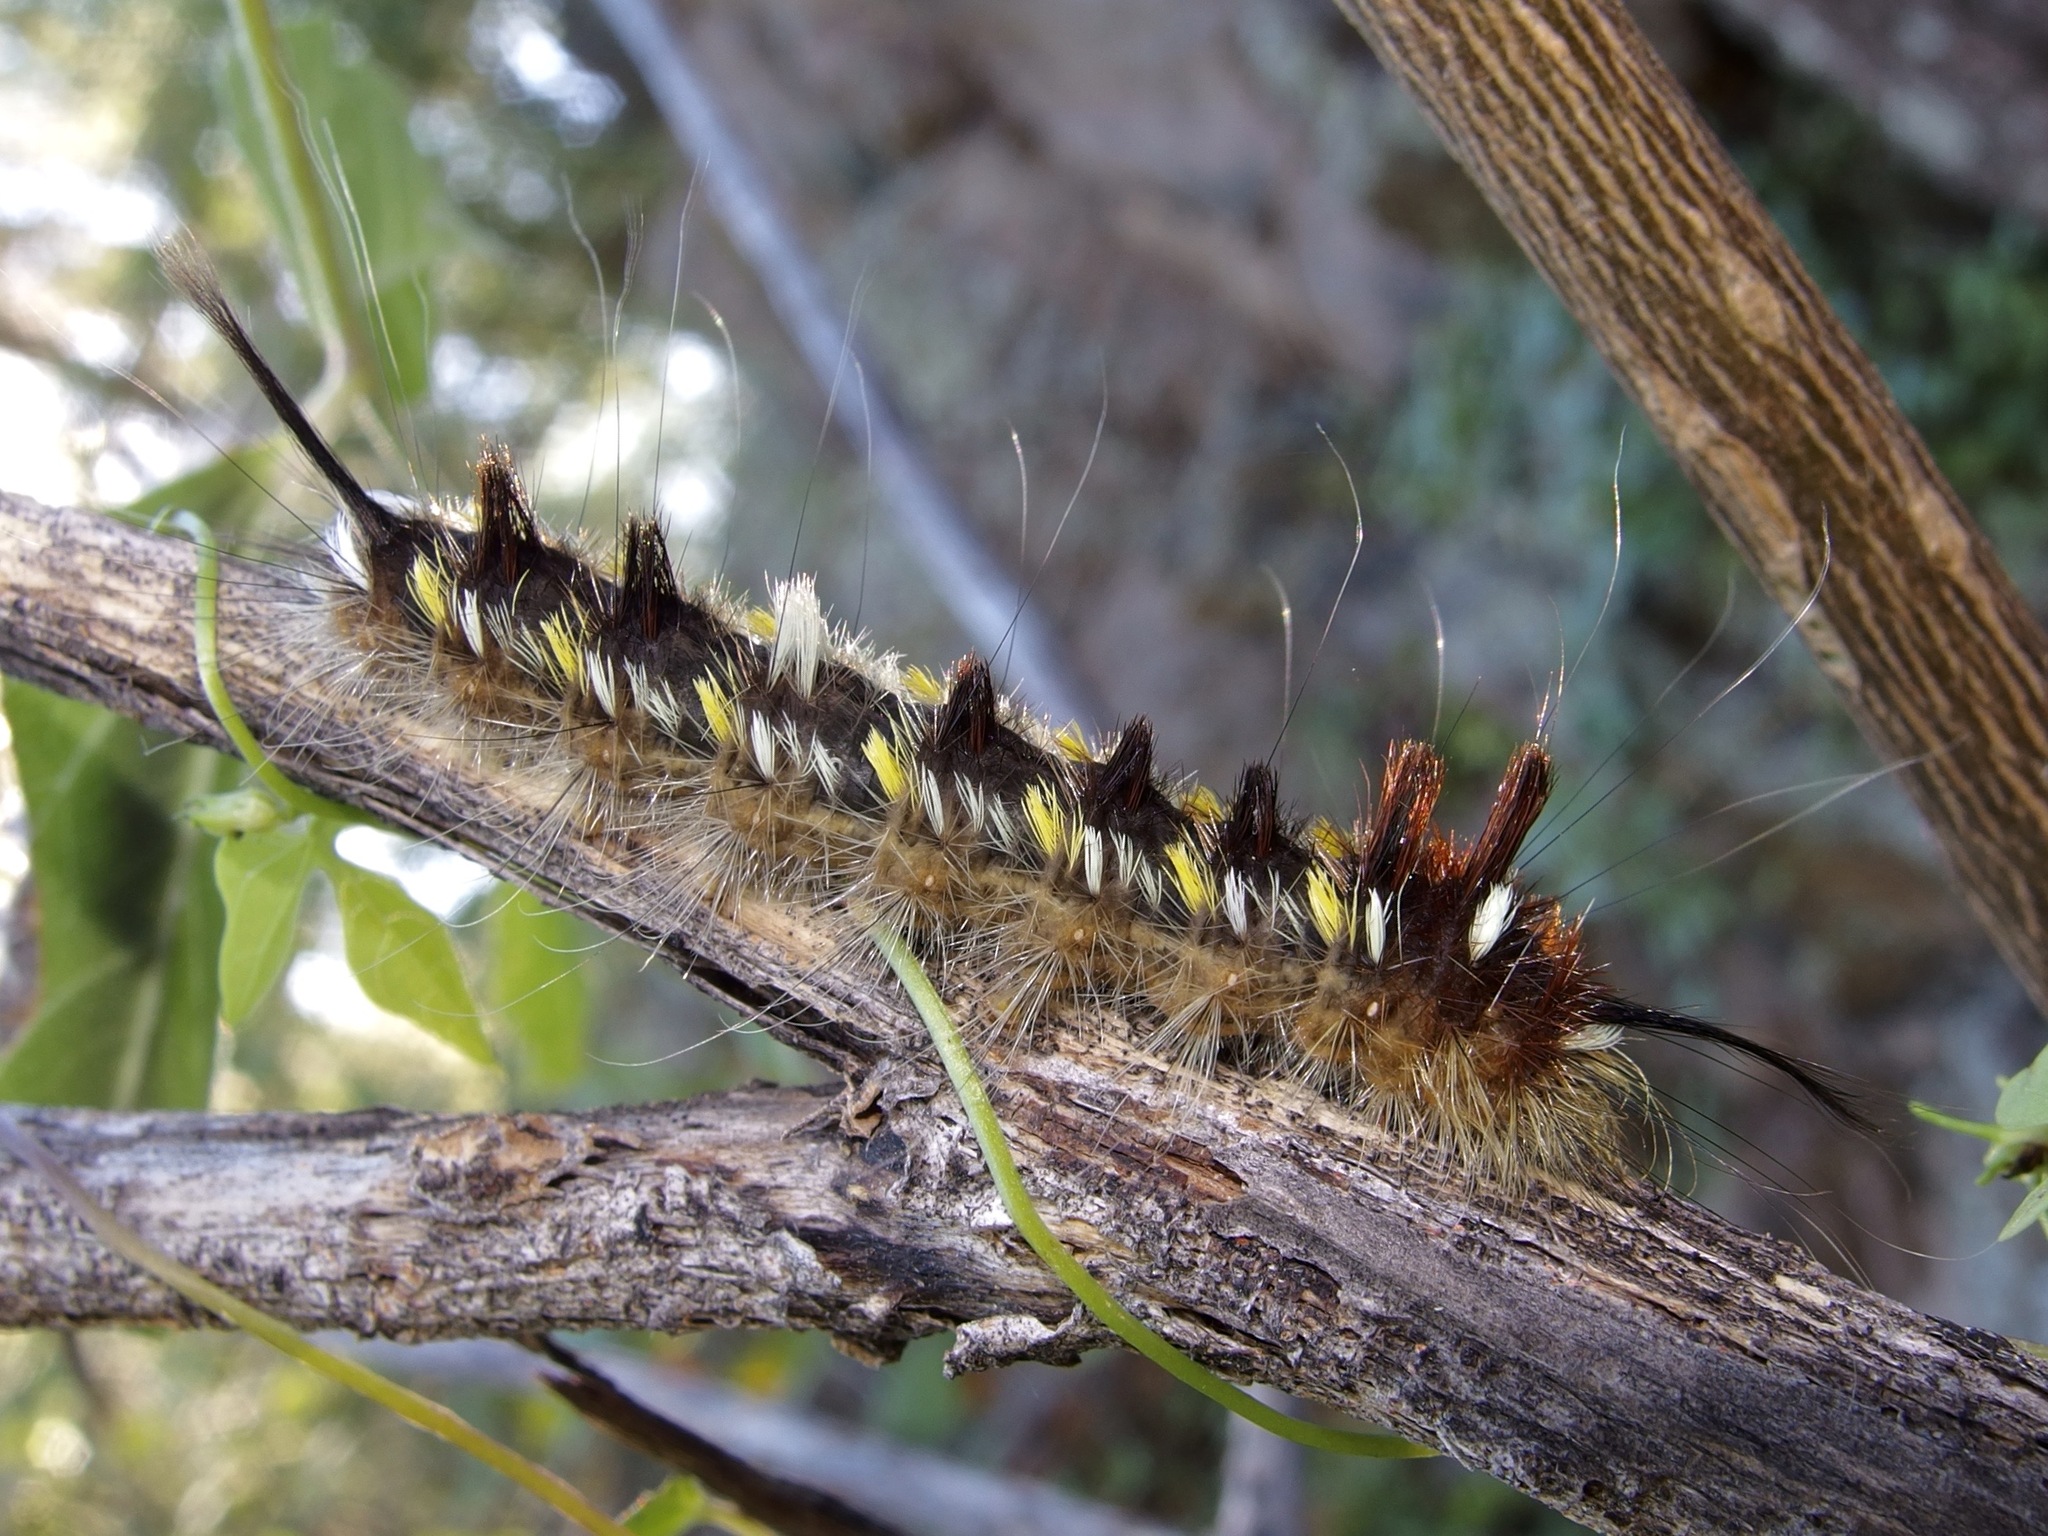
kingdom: Animalia
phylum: Arthropoda
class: Insecta
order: Lepidoptera
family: Apatelodidae
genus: Hygrochroa
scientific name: Hygrochroa Apatelodes pudefacta
